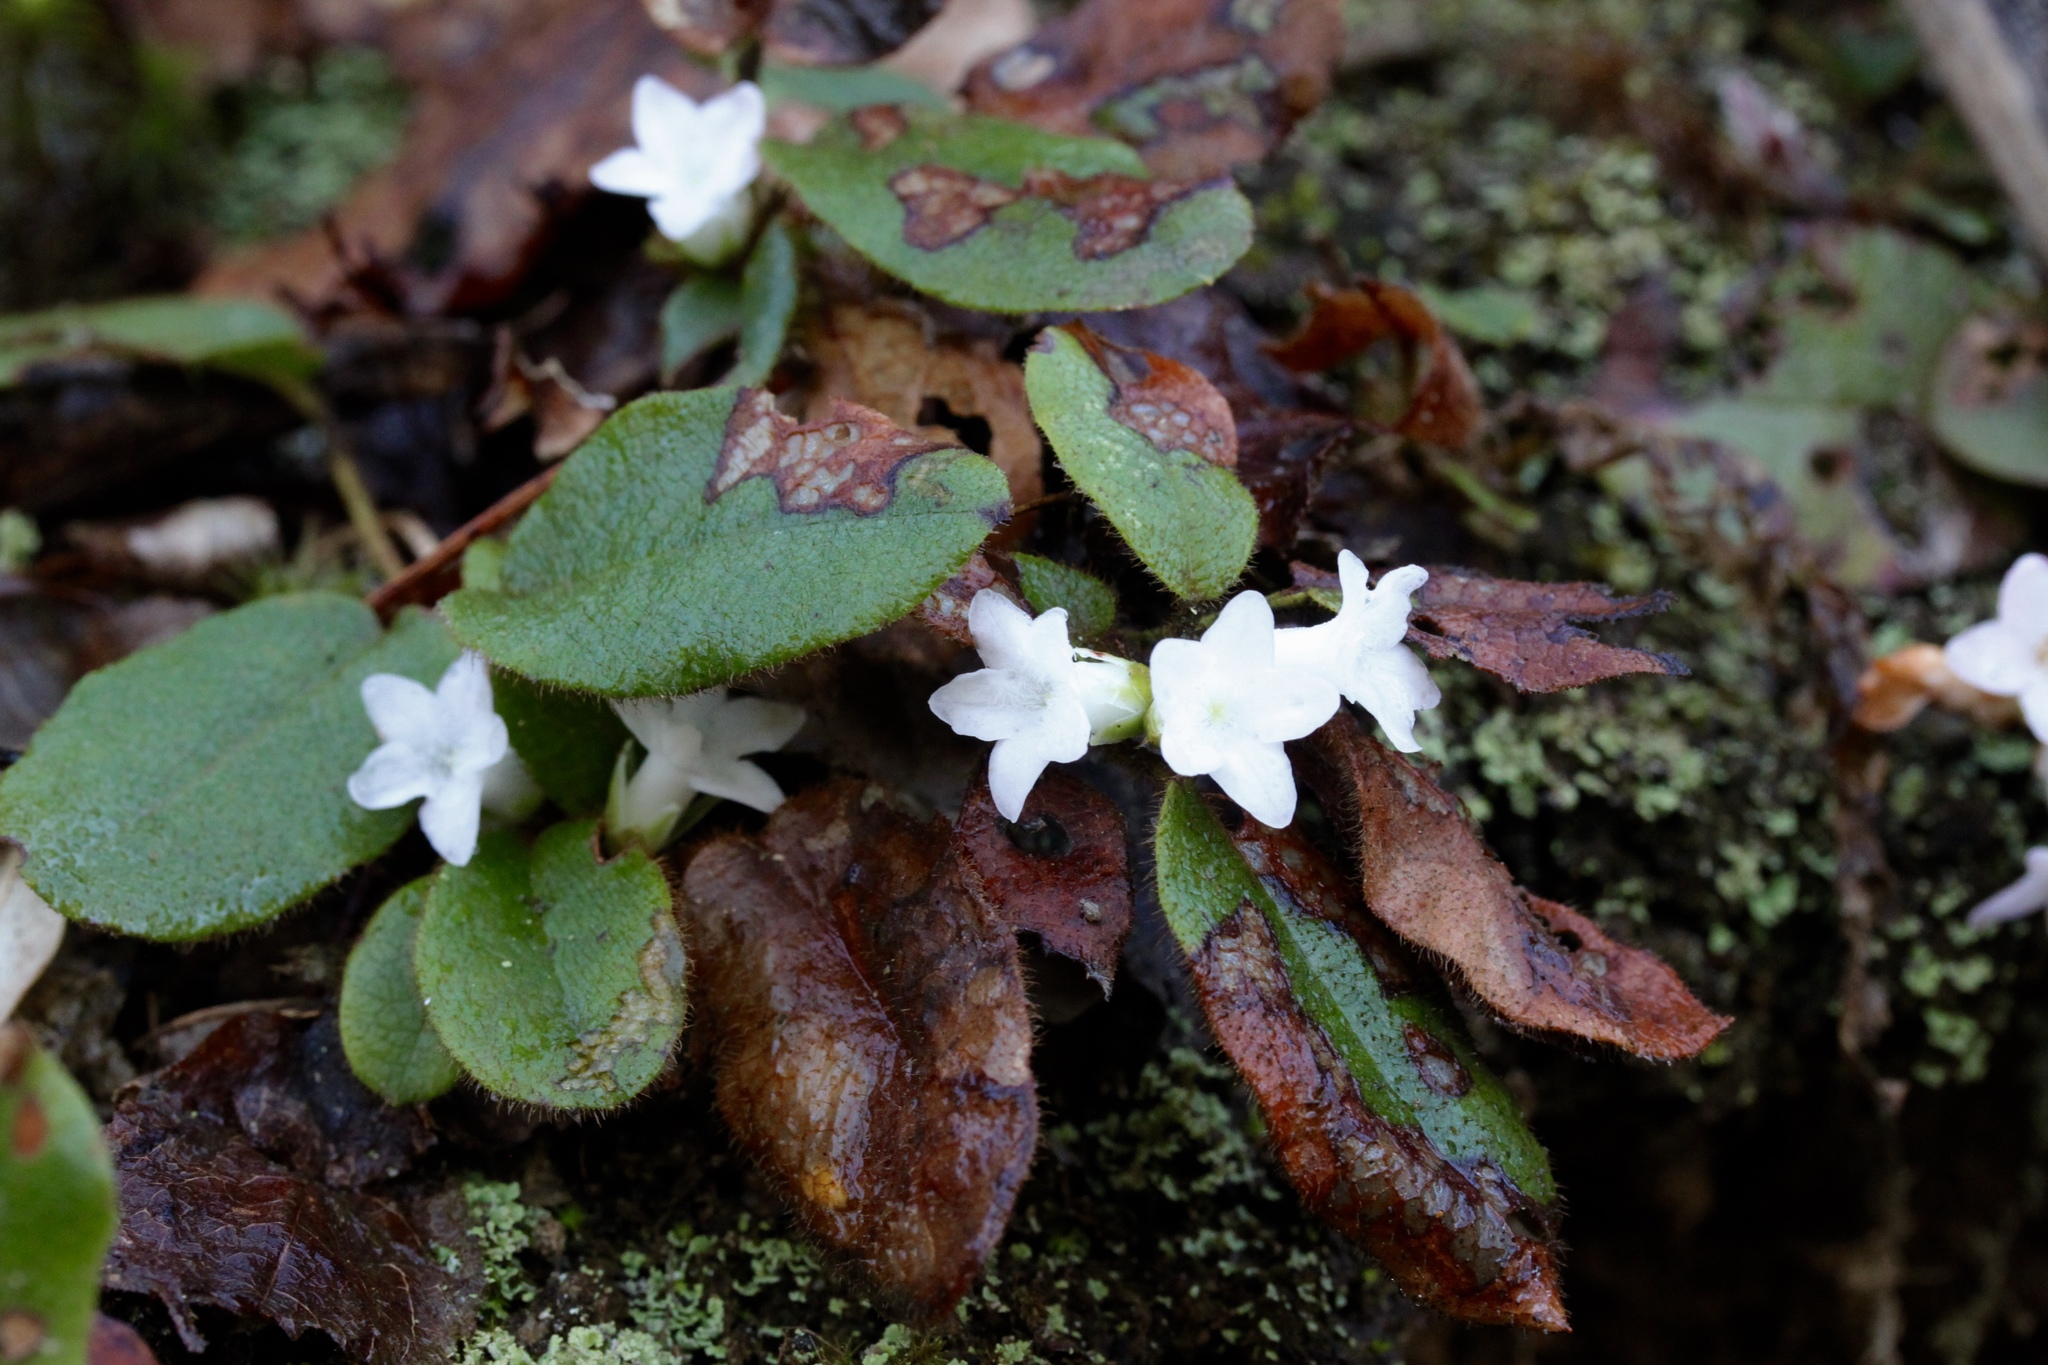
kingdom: Plantae
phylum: Tracheophyta
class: Magnoliopsida
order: Ericales
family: Ericaceae
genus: Epigaea
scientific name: Epigaea repens
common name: Gravelroot
